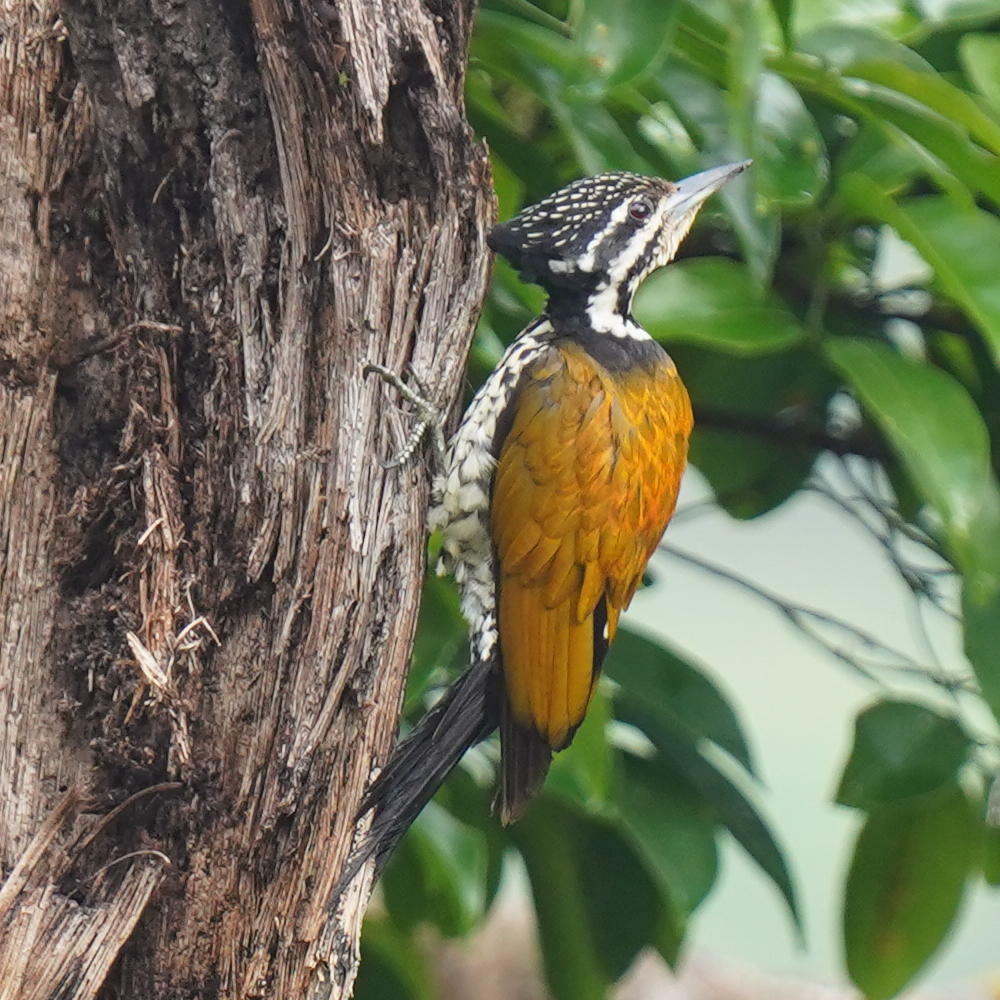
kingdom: Animalia
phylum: Chordata
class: Aves
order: Piciformes
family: Picidae
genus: Dinopium
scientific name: Dinopium javanense
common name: Common flameback
